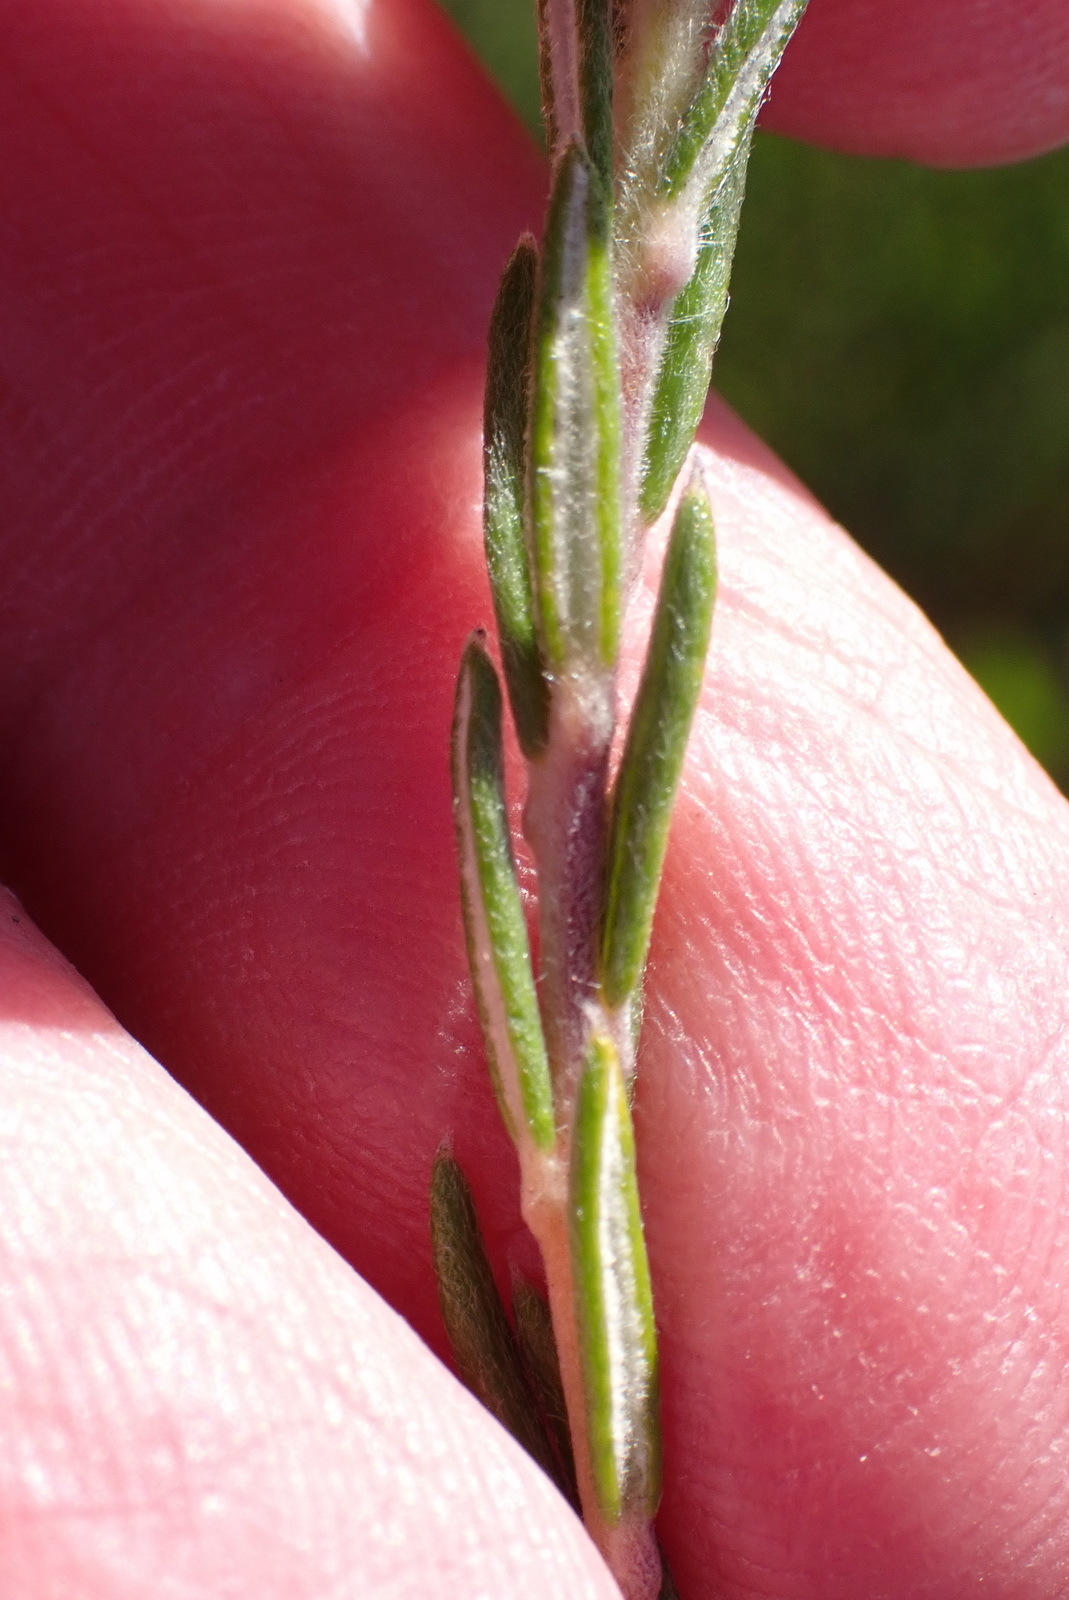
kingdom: Plantae
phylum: Tracheophyta
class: Magnoliopsida
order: Rosales
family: Rhamnaceae
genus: Phylica
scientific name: Phylica imberbis
